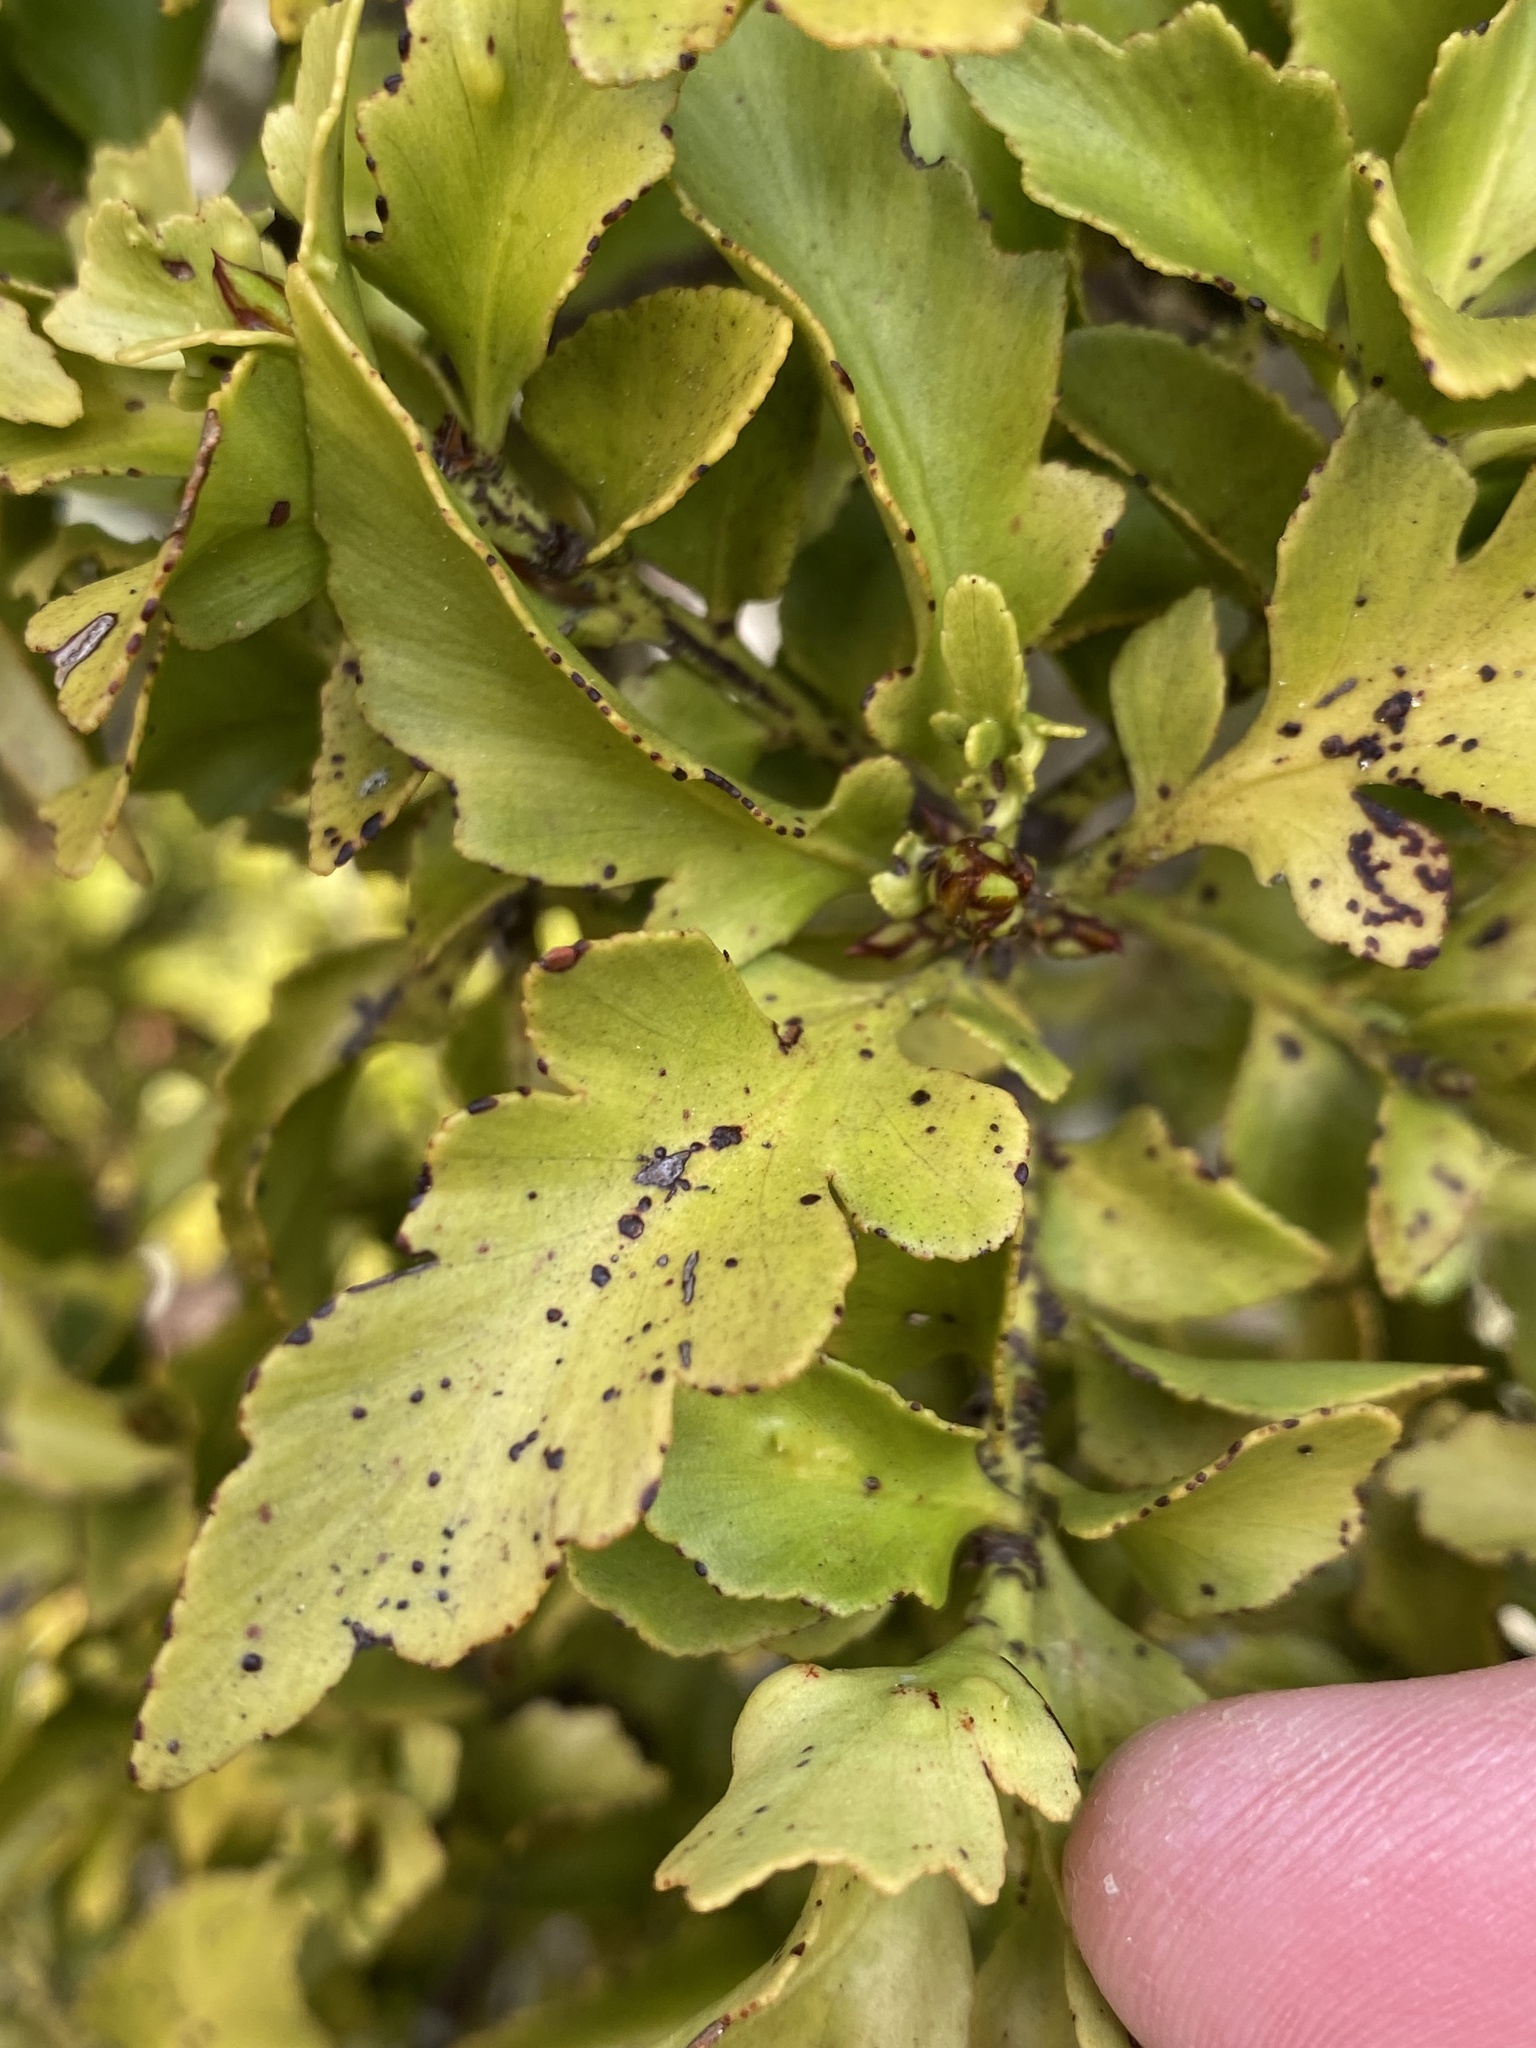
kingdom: Plantae
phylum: Tracheophyta
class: Pinopsida
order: Pinales
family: Phyllocladaceae
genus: Phyllocladus
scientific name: Phyllocladus trichomanoides
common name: Celery pine
